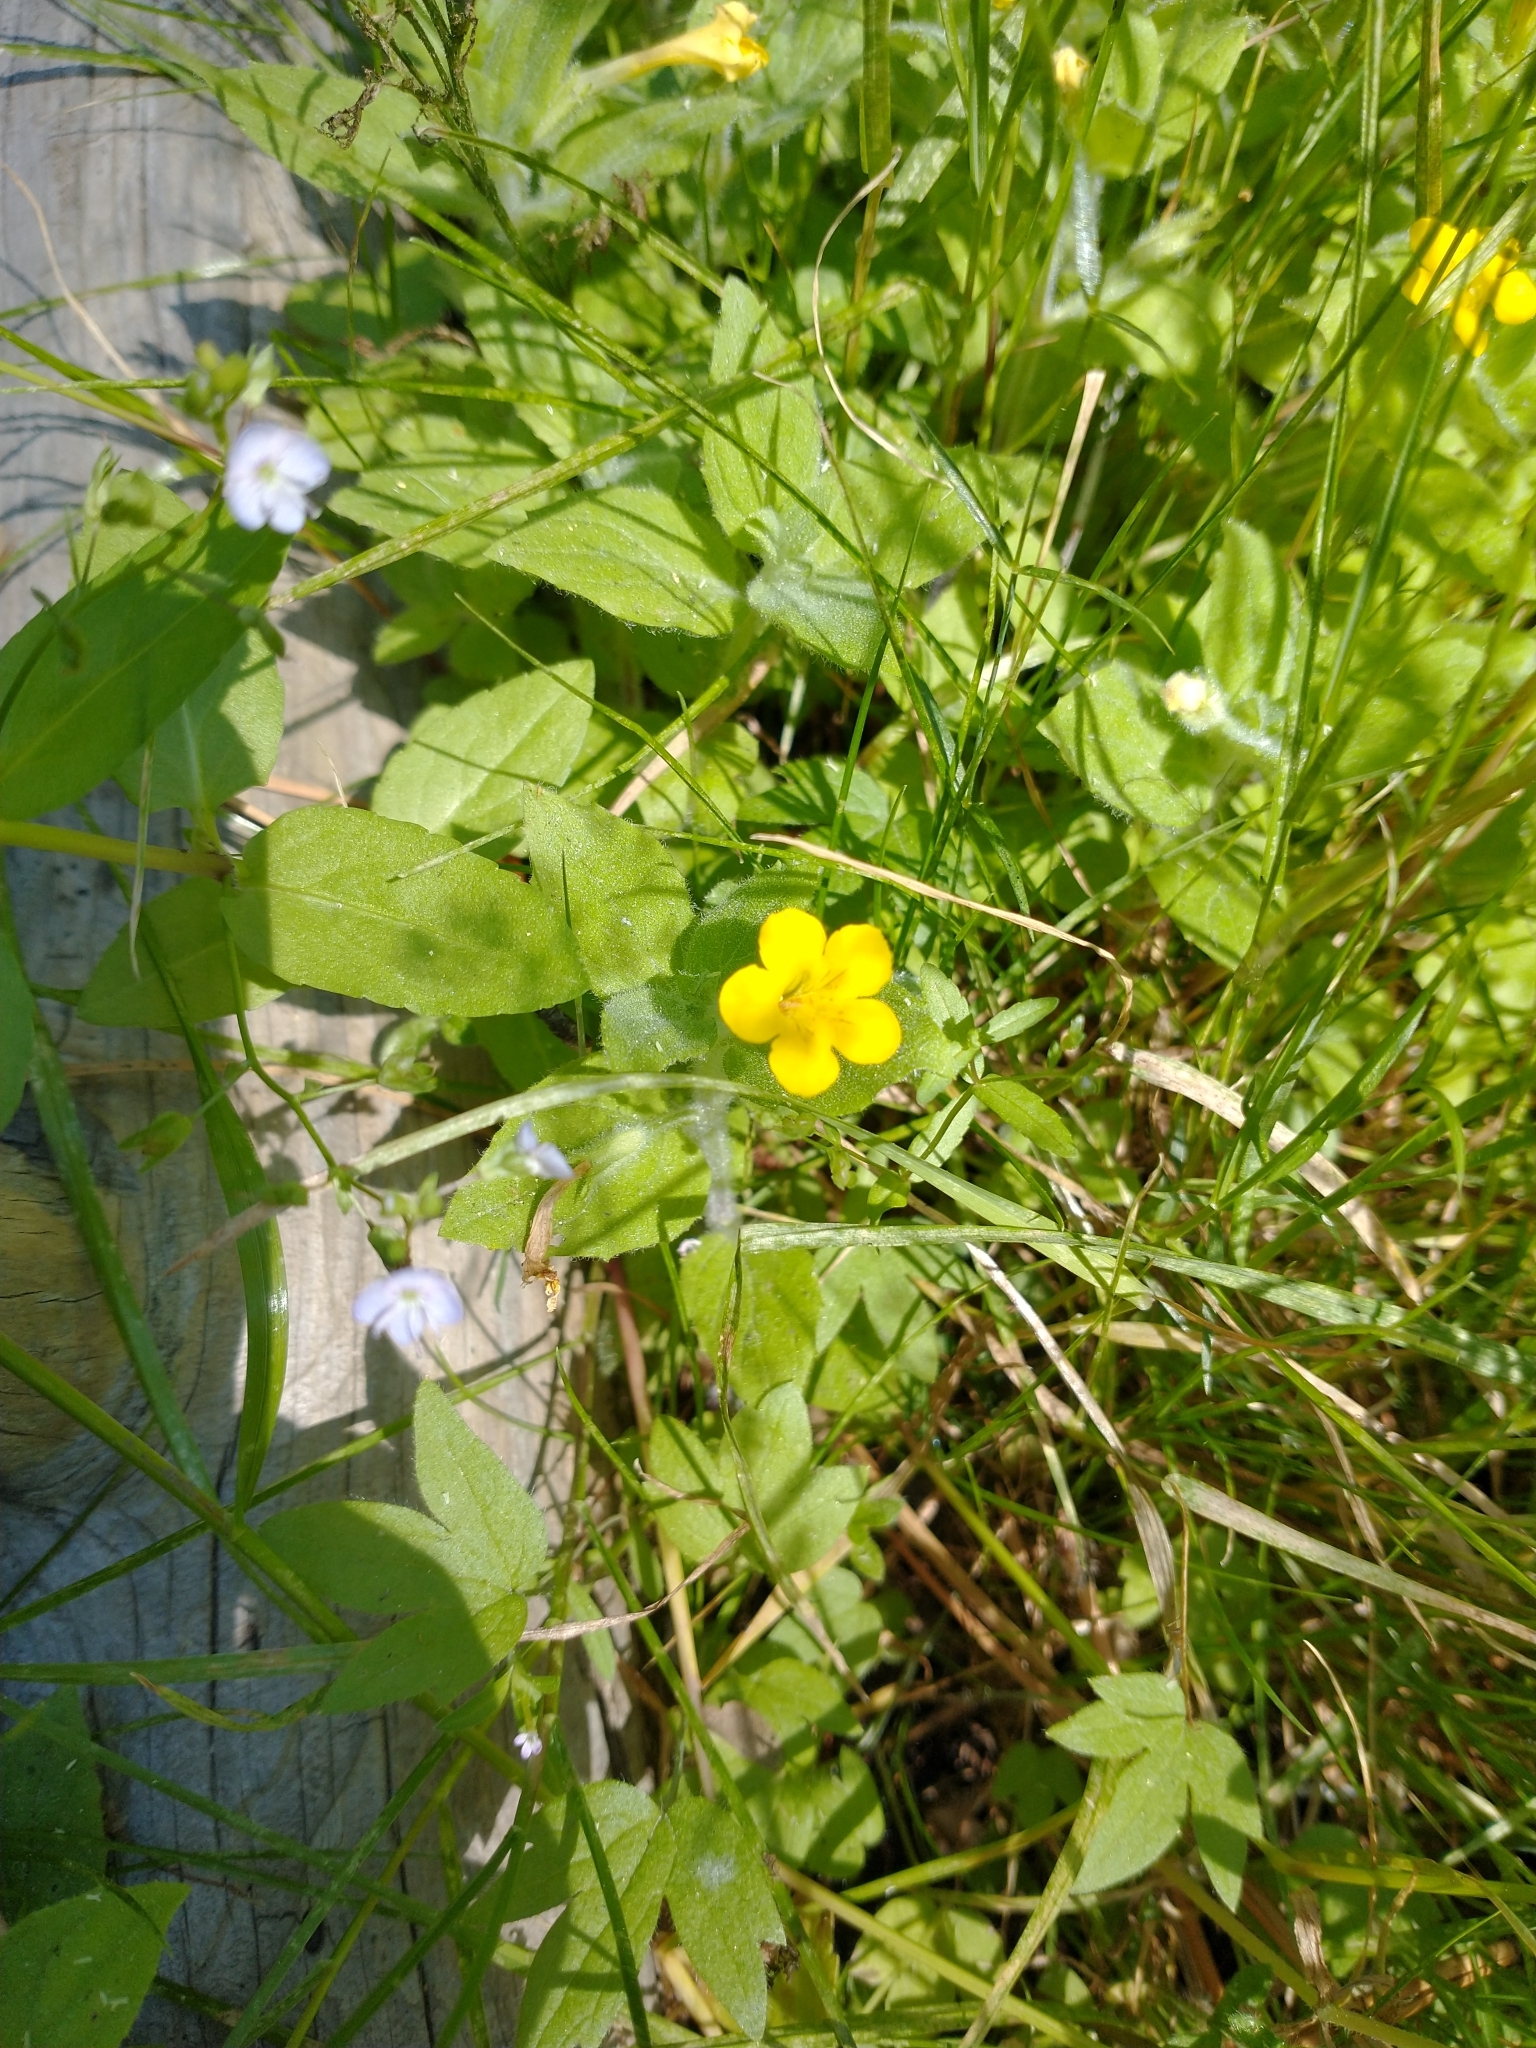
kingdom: Plantae
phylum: Tracheophyta
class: Magnoliopsida
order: Lamiales
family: Phrymaceae
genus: Erythranthe
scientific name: Erythranthe moschata
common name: Muskflower
